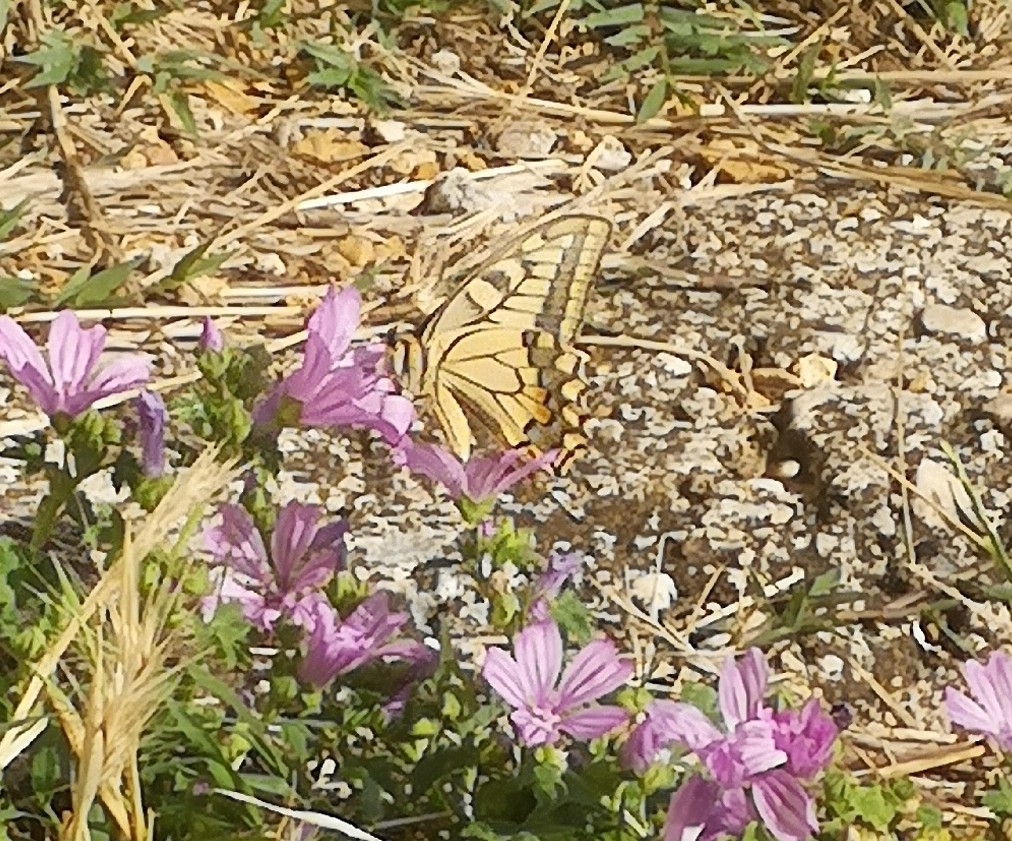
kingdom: Animalia
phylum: Arthropoda
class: Insecta
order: Lepidoptera
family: Papilionidae
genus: Papilio
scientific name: Papilio machaon
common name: Swallowtail
